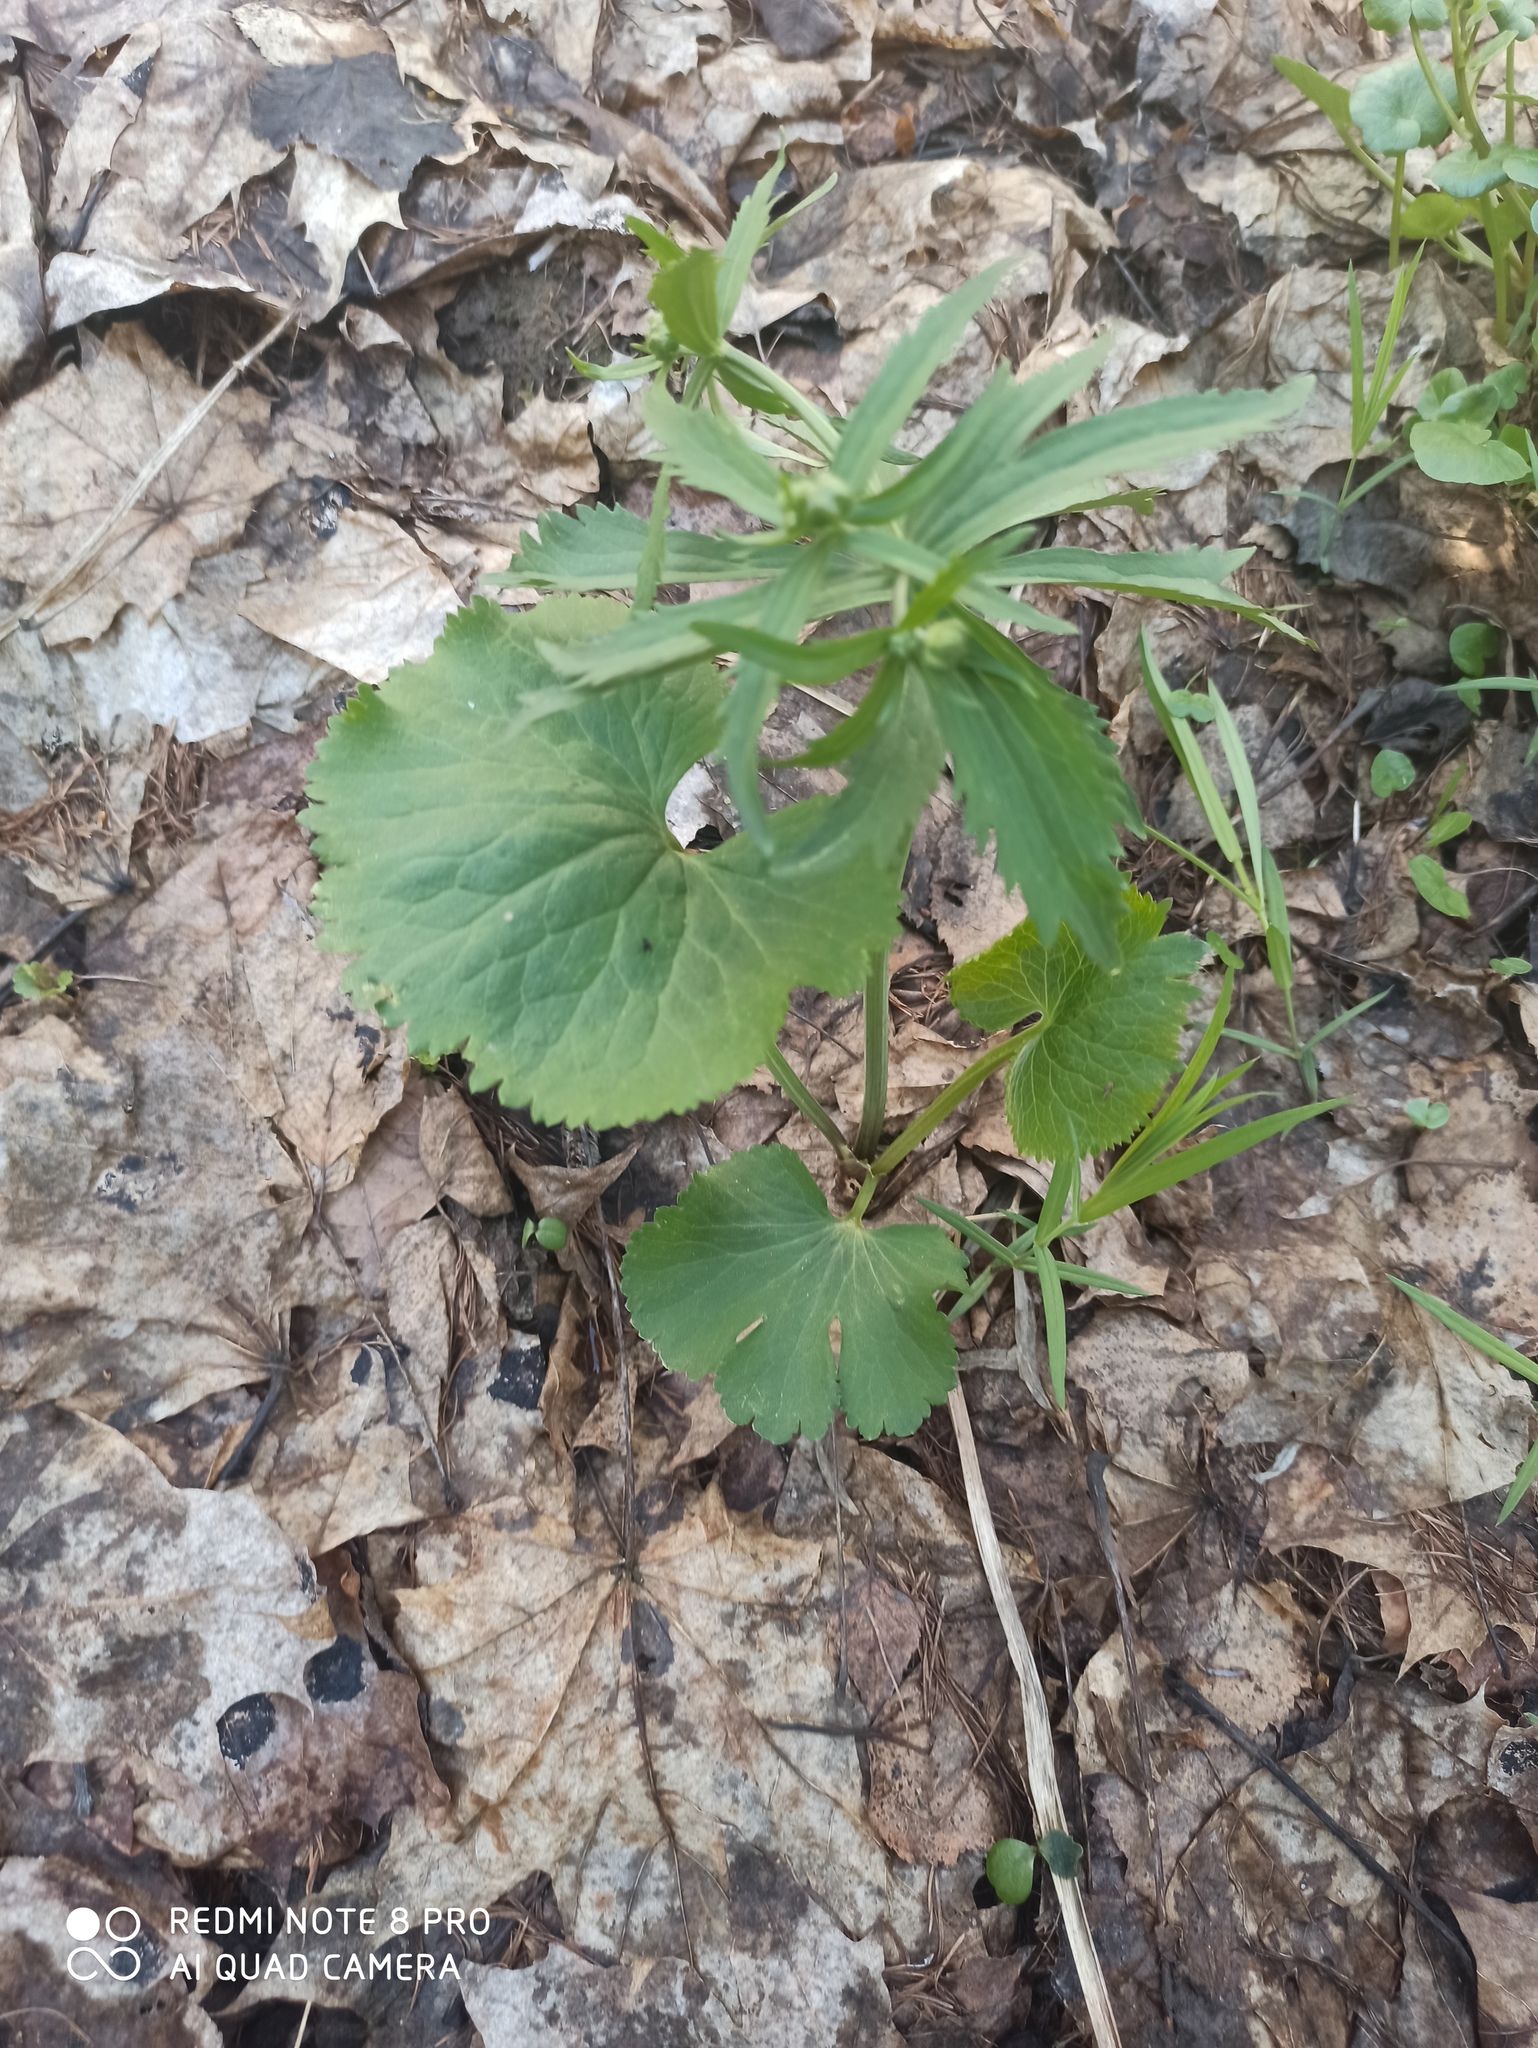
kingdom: Plantae
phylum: Tracheophyta
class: Magnoliopsida
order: Ranunculales
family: Ranunculaceae
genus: Ranunculus
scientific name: Ranunculus cassubicus
